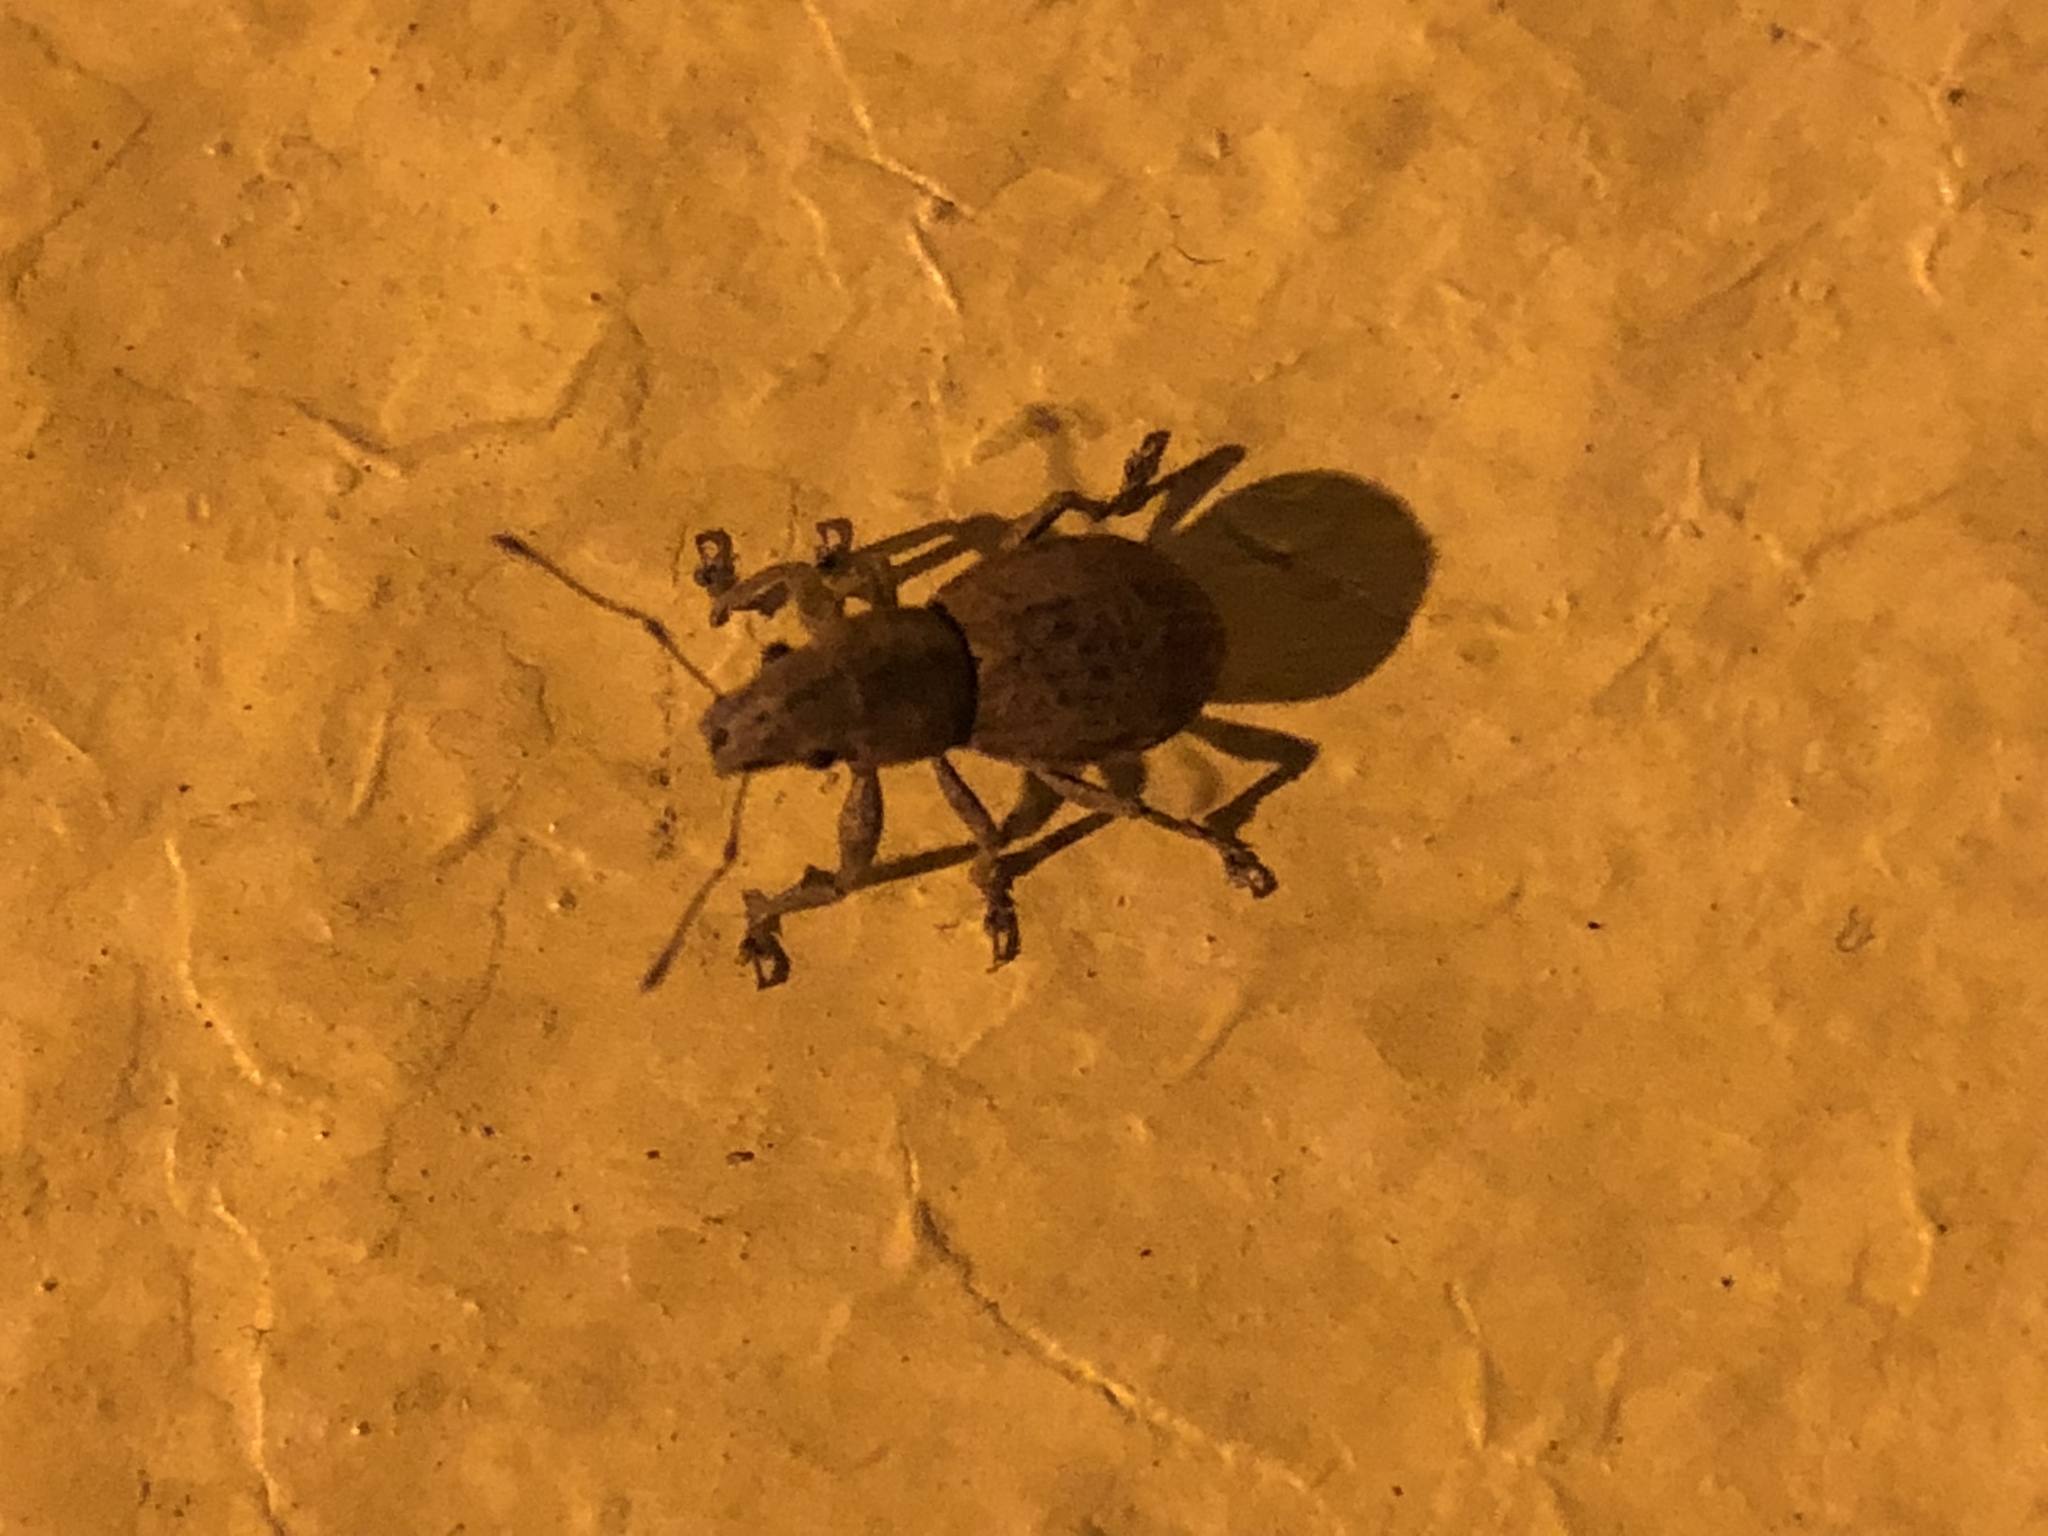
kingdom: Animalia
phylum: Arthropoda
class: Insecta
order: Coleoptera
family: Curculionidae
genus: Naupactus
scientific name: Naupactus cervinus
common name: Fuller rose beetle
